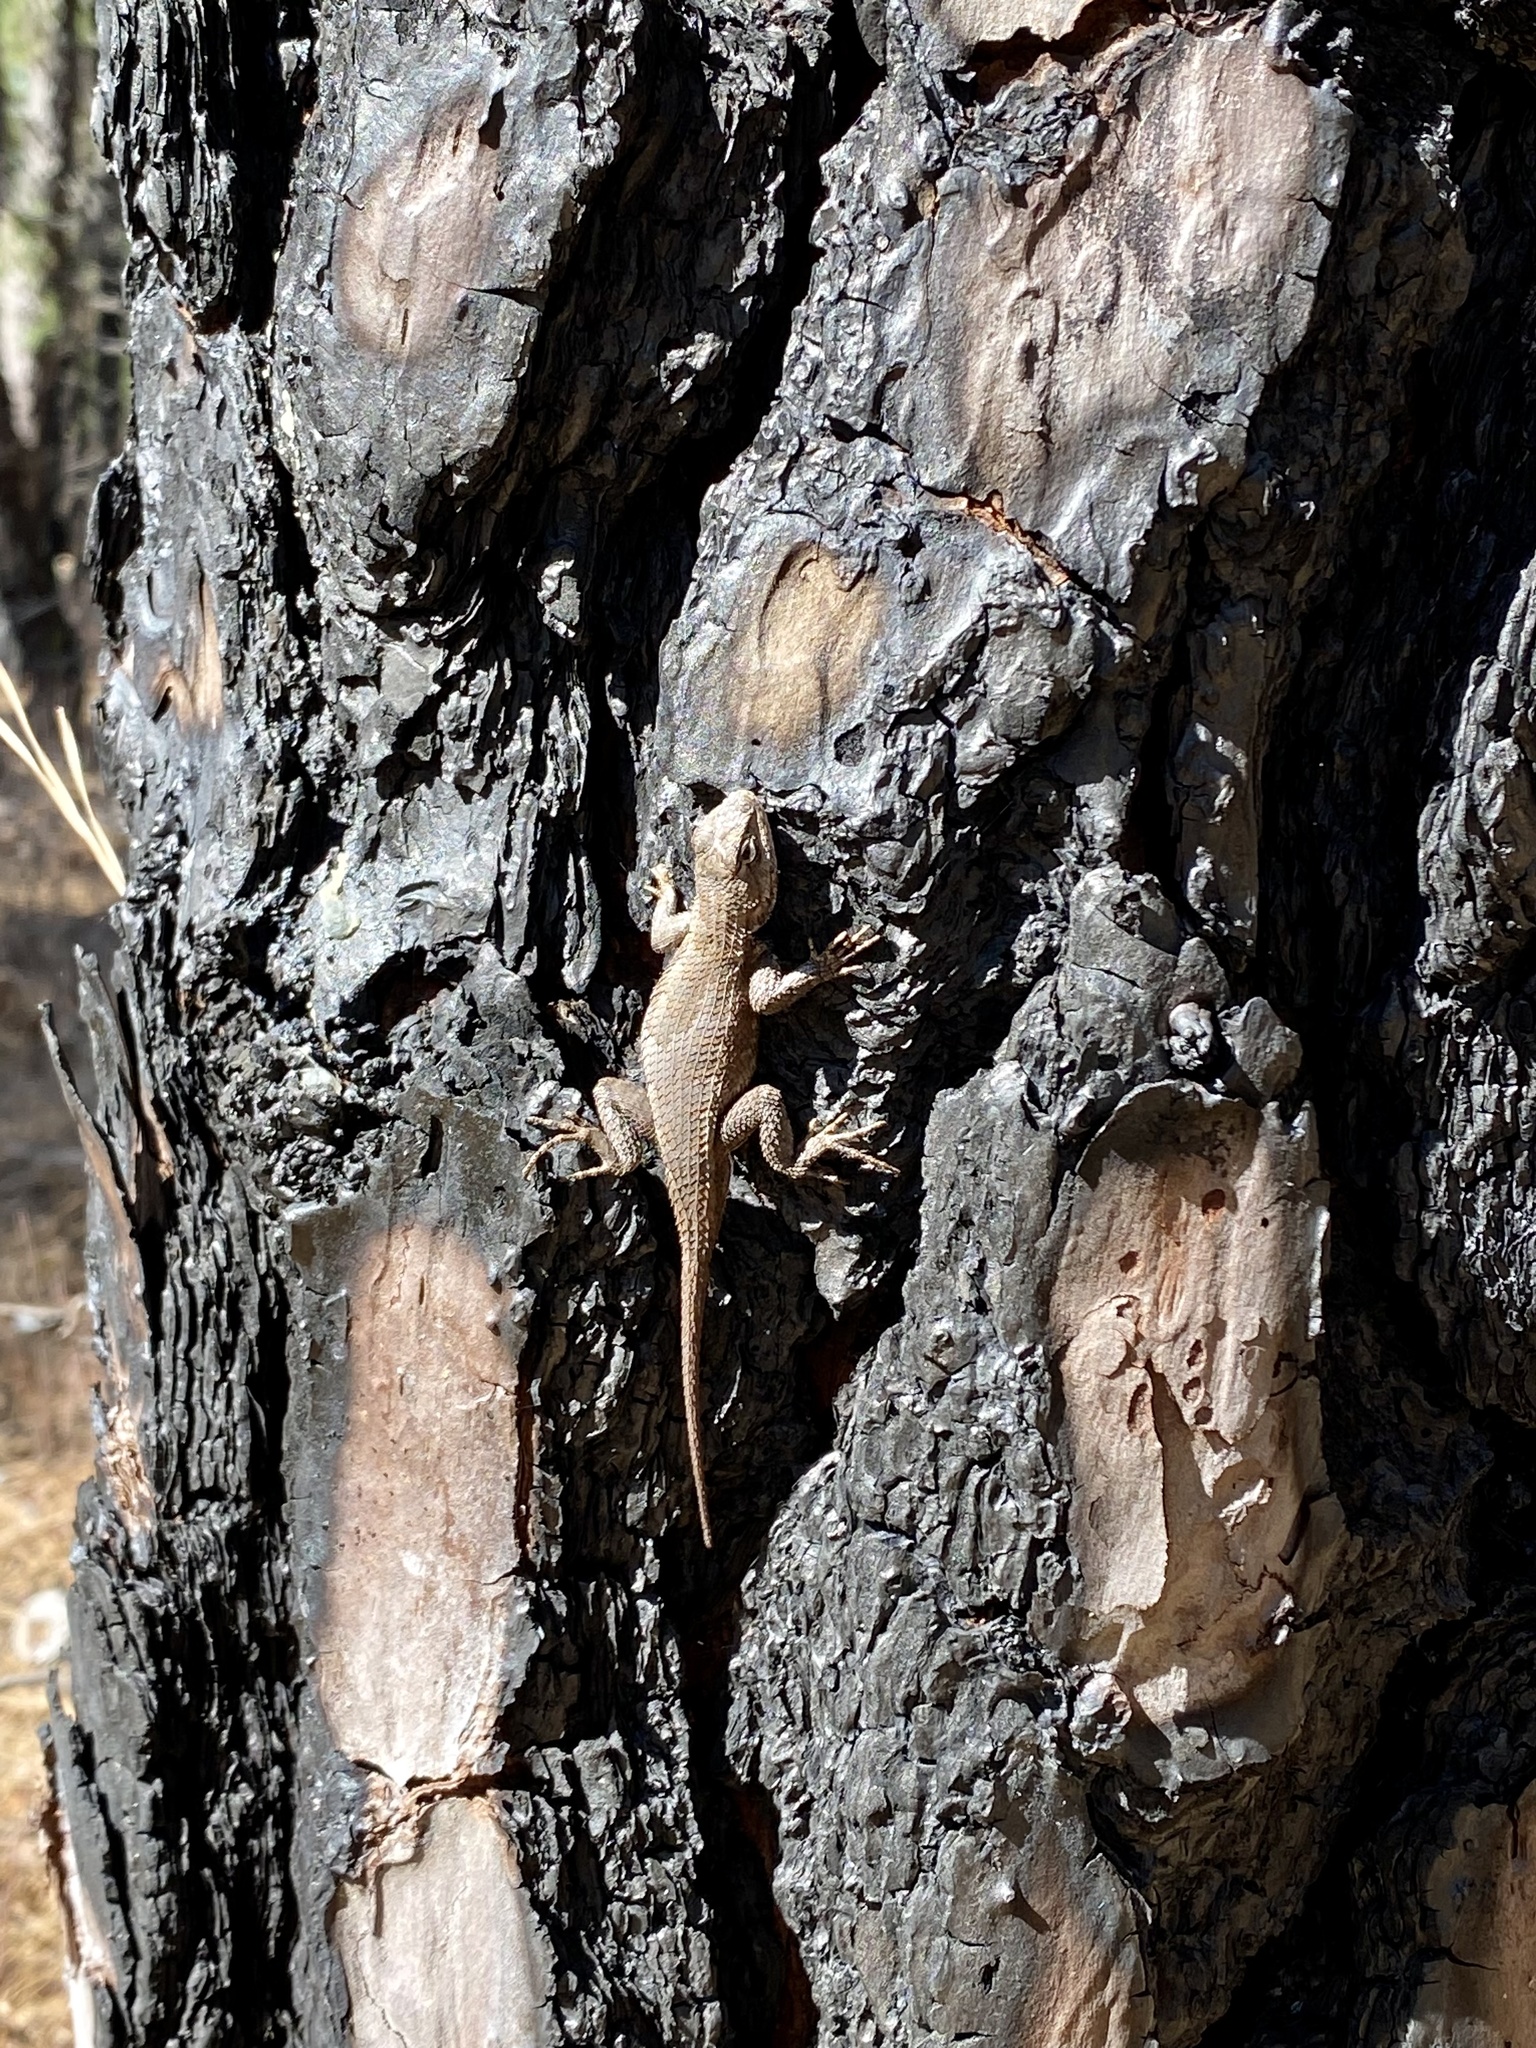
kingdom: Animalia
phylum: Chordata
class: Squamata
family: Phrynosomatidae
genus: Sceloporus
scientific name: Sceloporus undulatus
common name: Eastern fence lizard
